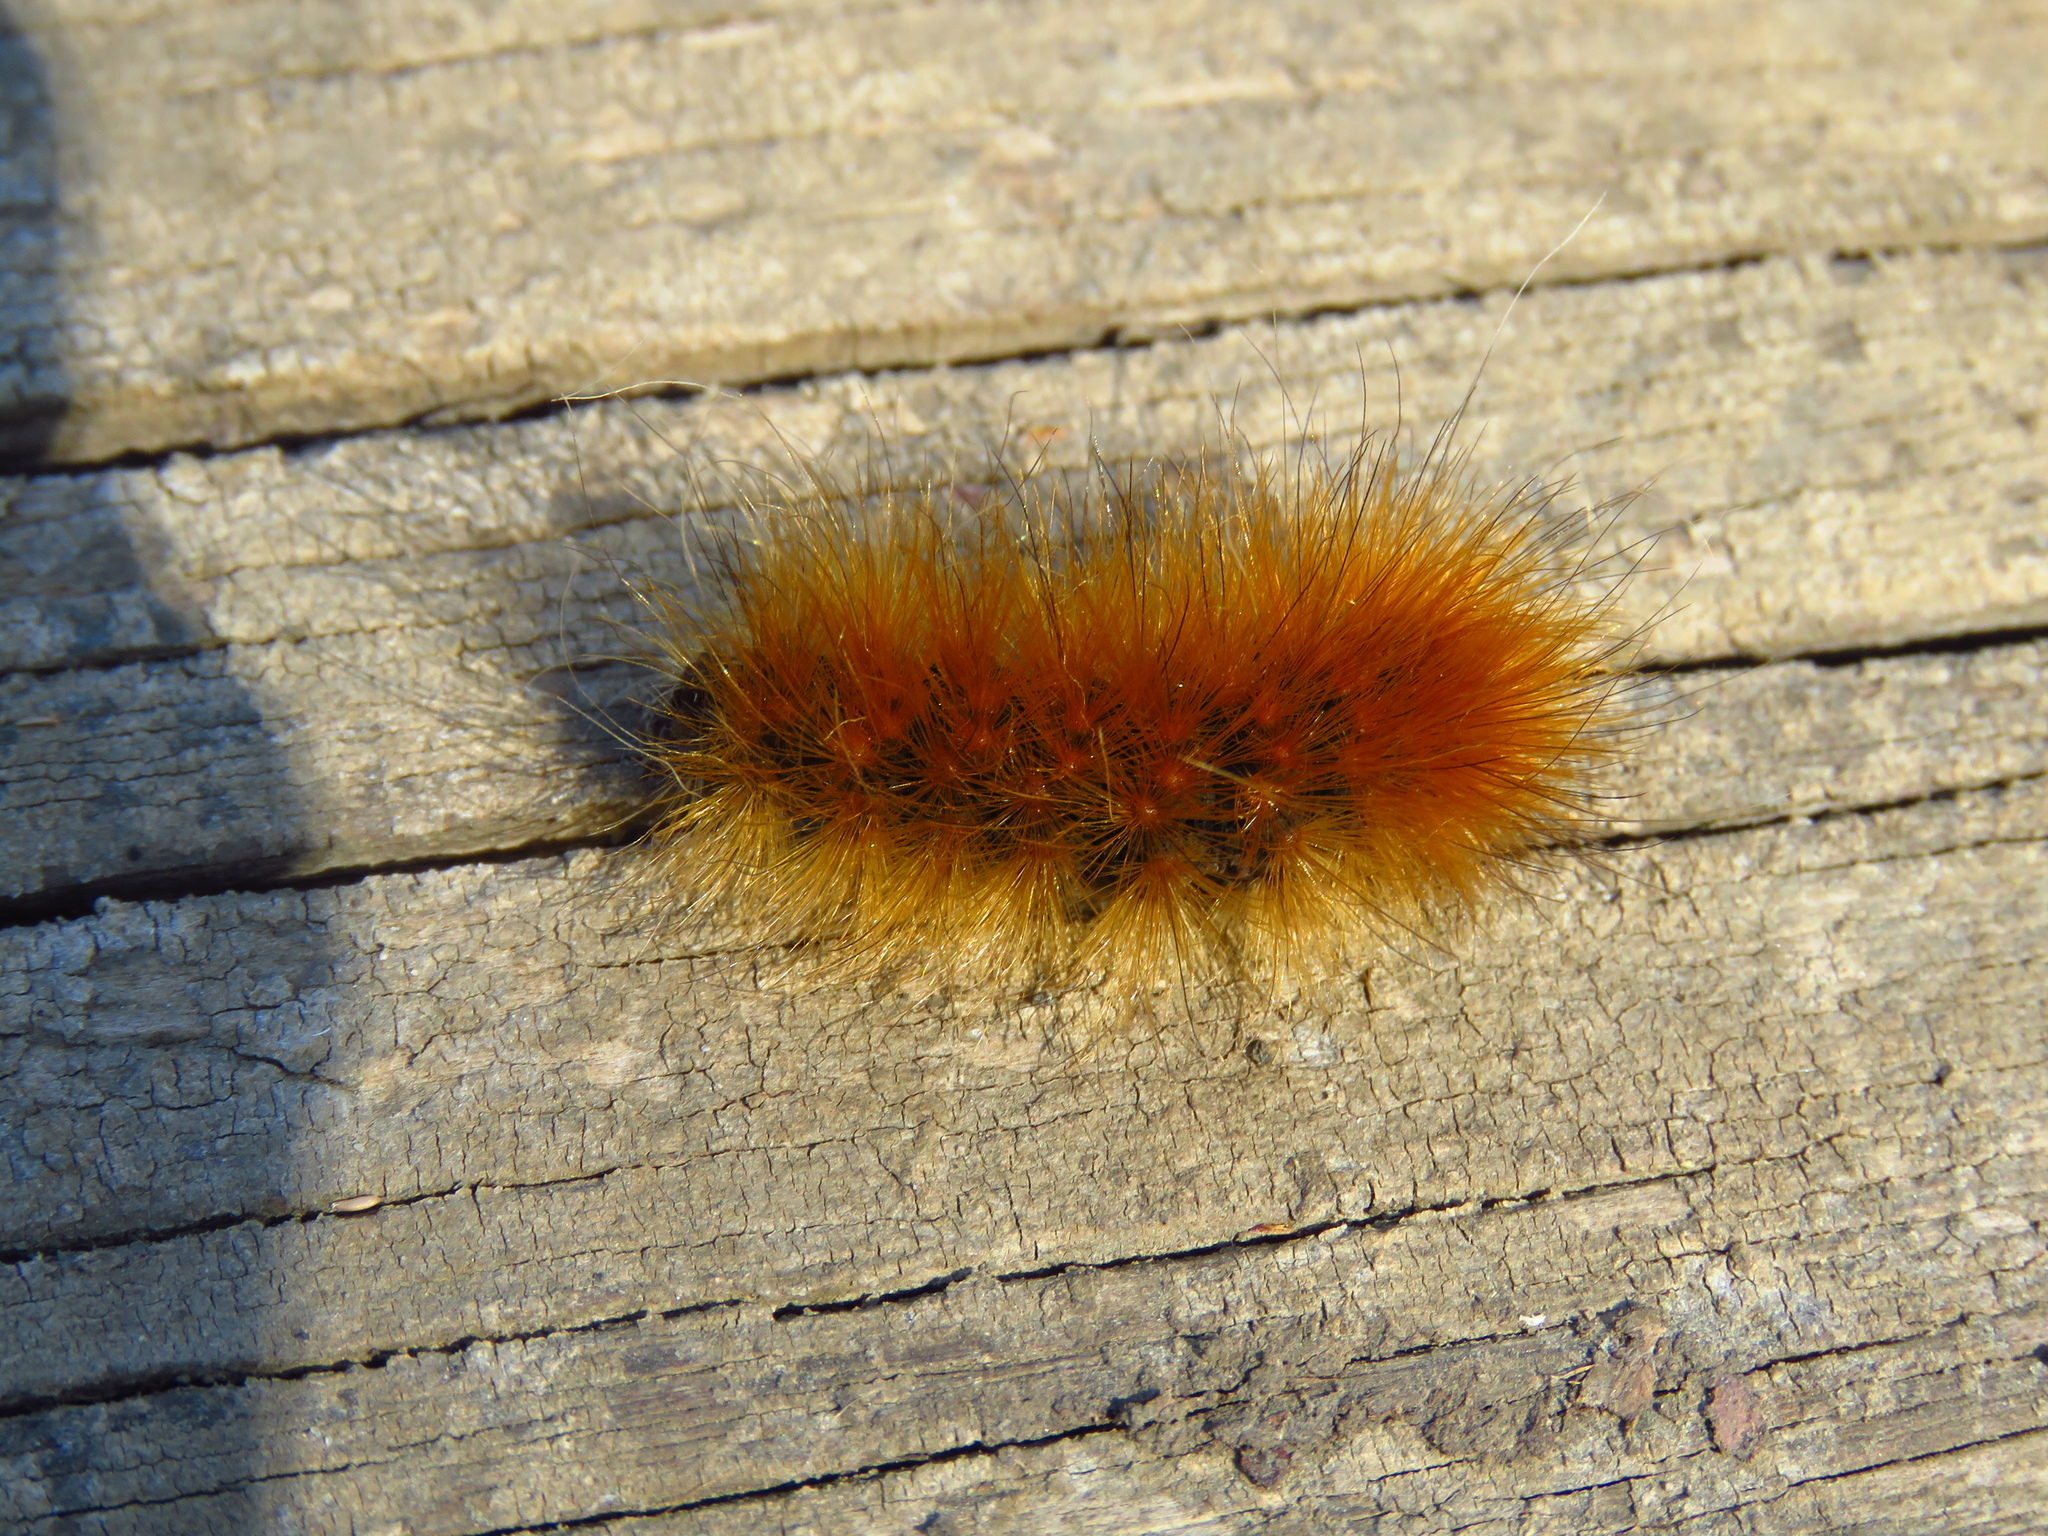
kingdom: Animalia
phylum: Arthropoda
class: Insecta
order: Lepidoptera
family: Erebidae
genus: Spilosoma
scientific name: Spilosoma virginica
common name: Virginia tiger moth
